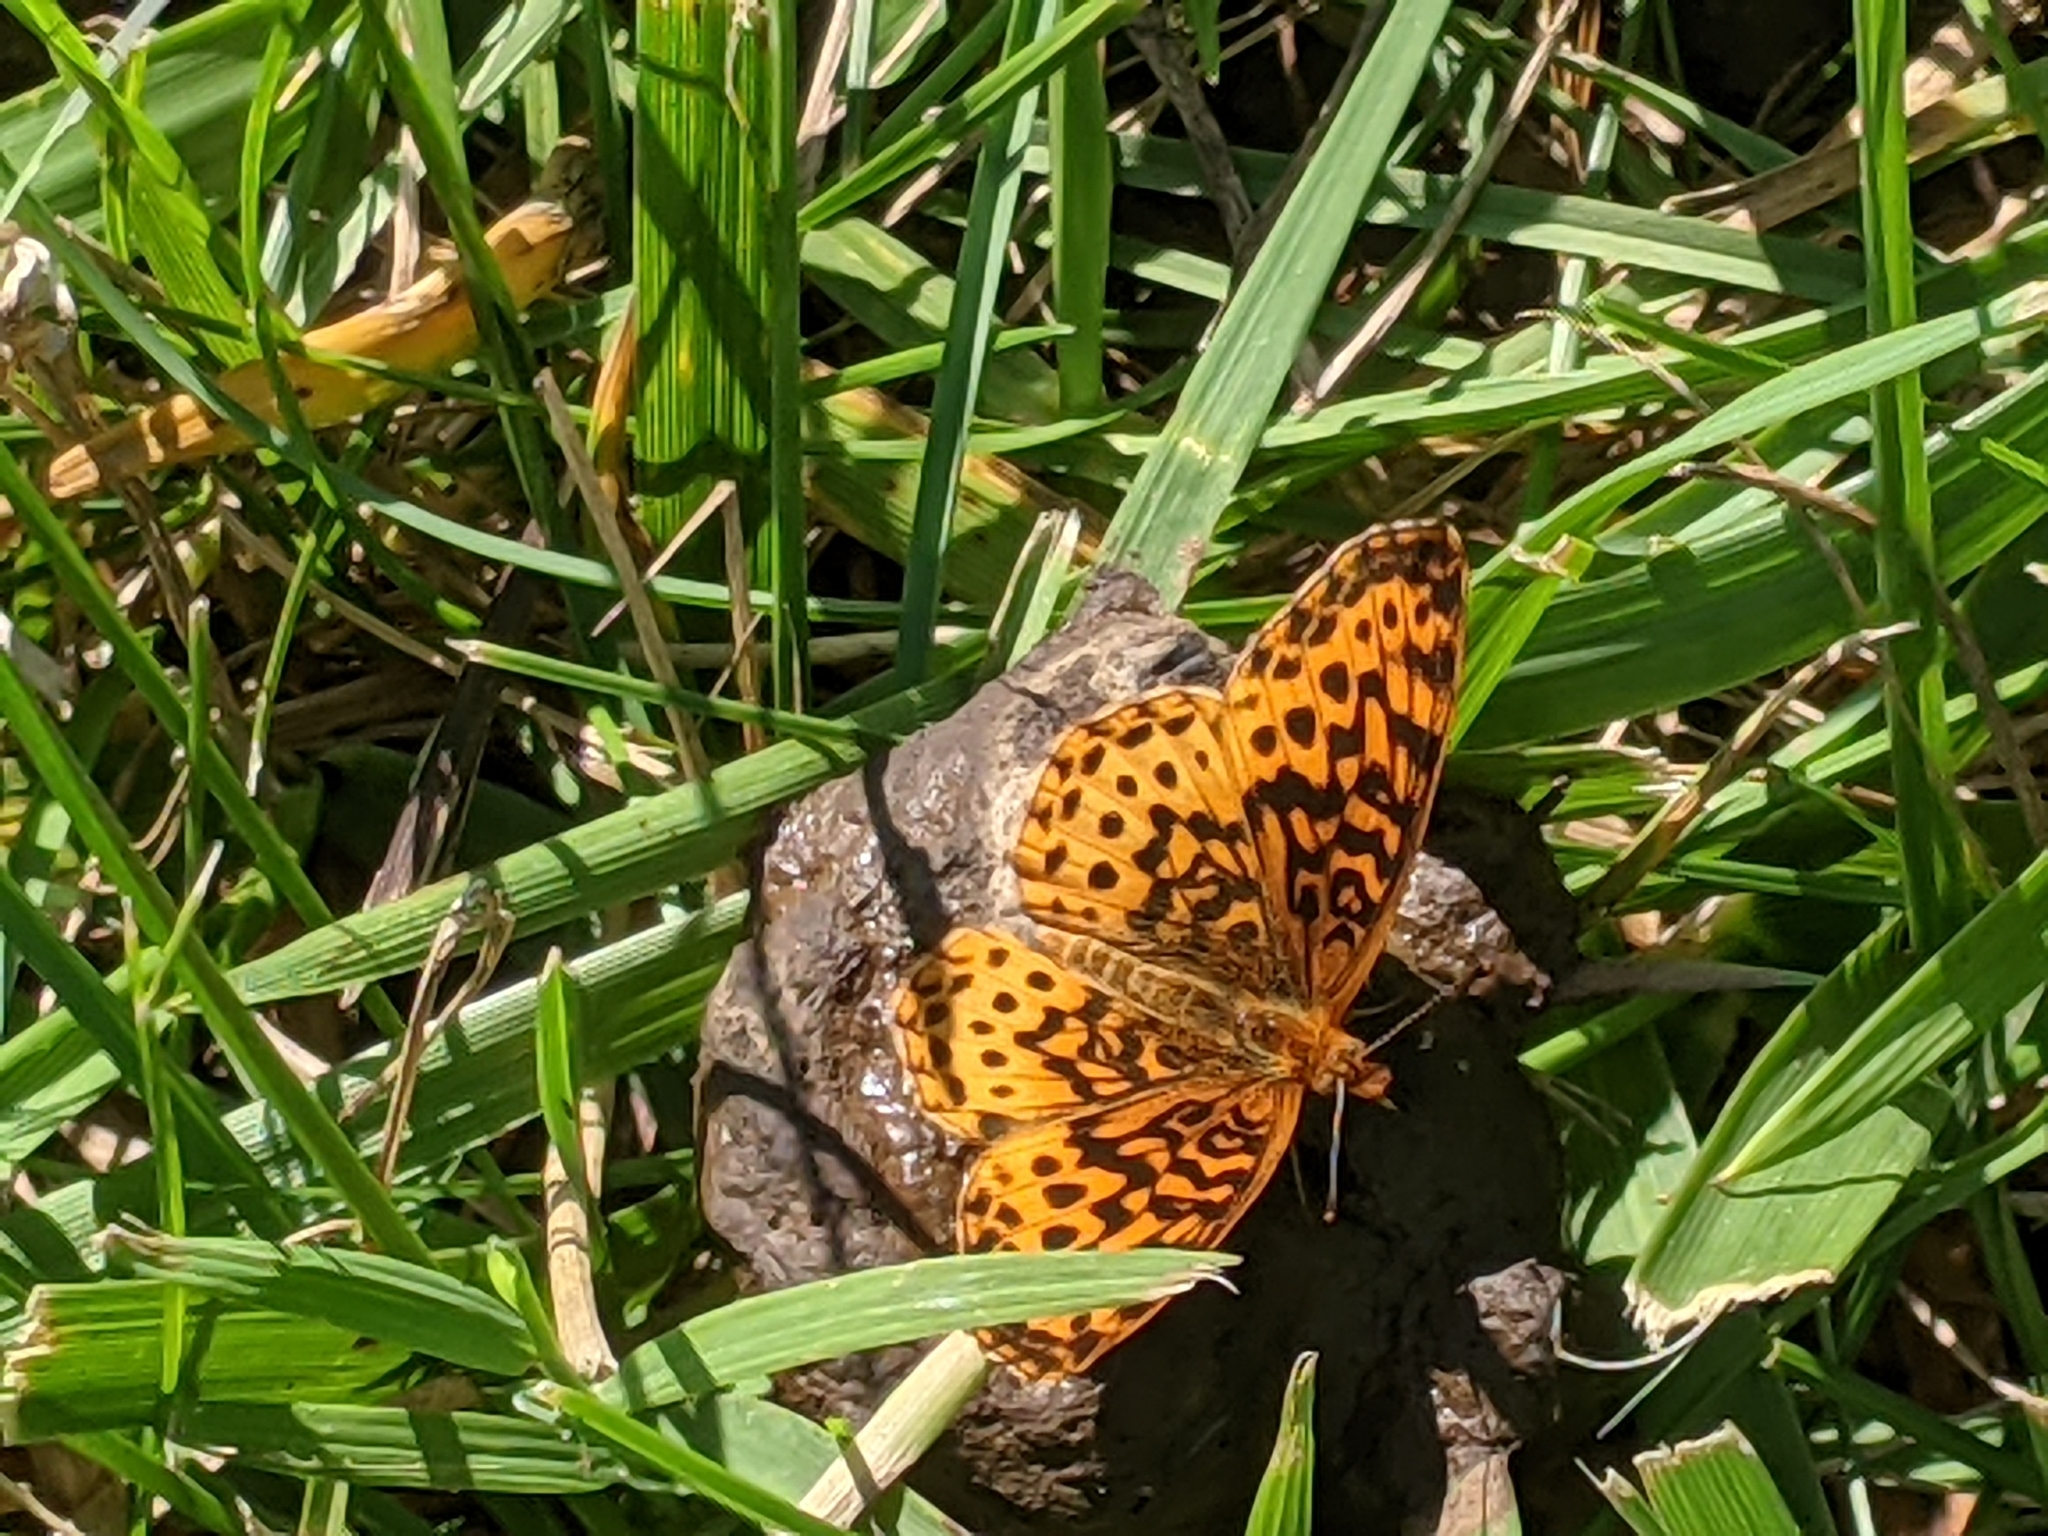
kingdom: Animalia
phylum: Arthropoda
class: Insecta
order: Lepidoptera
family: Nymphalidae
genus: Clossiana
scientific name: Clossiana toddi
